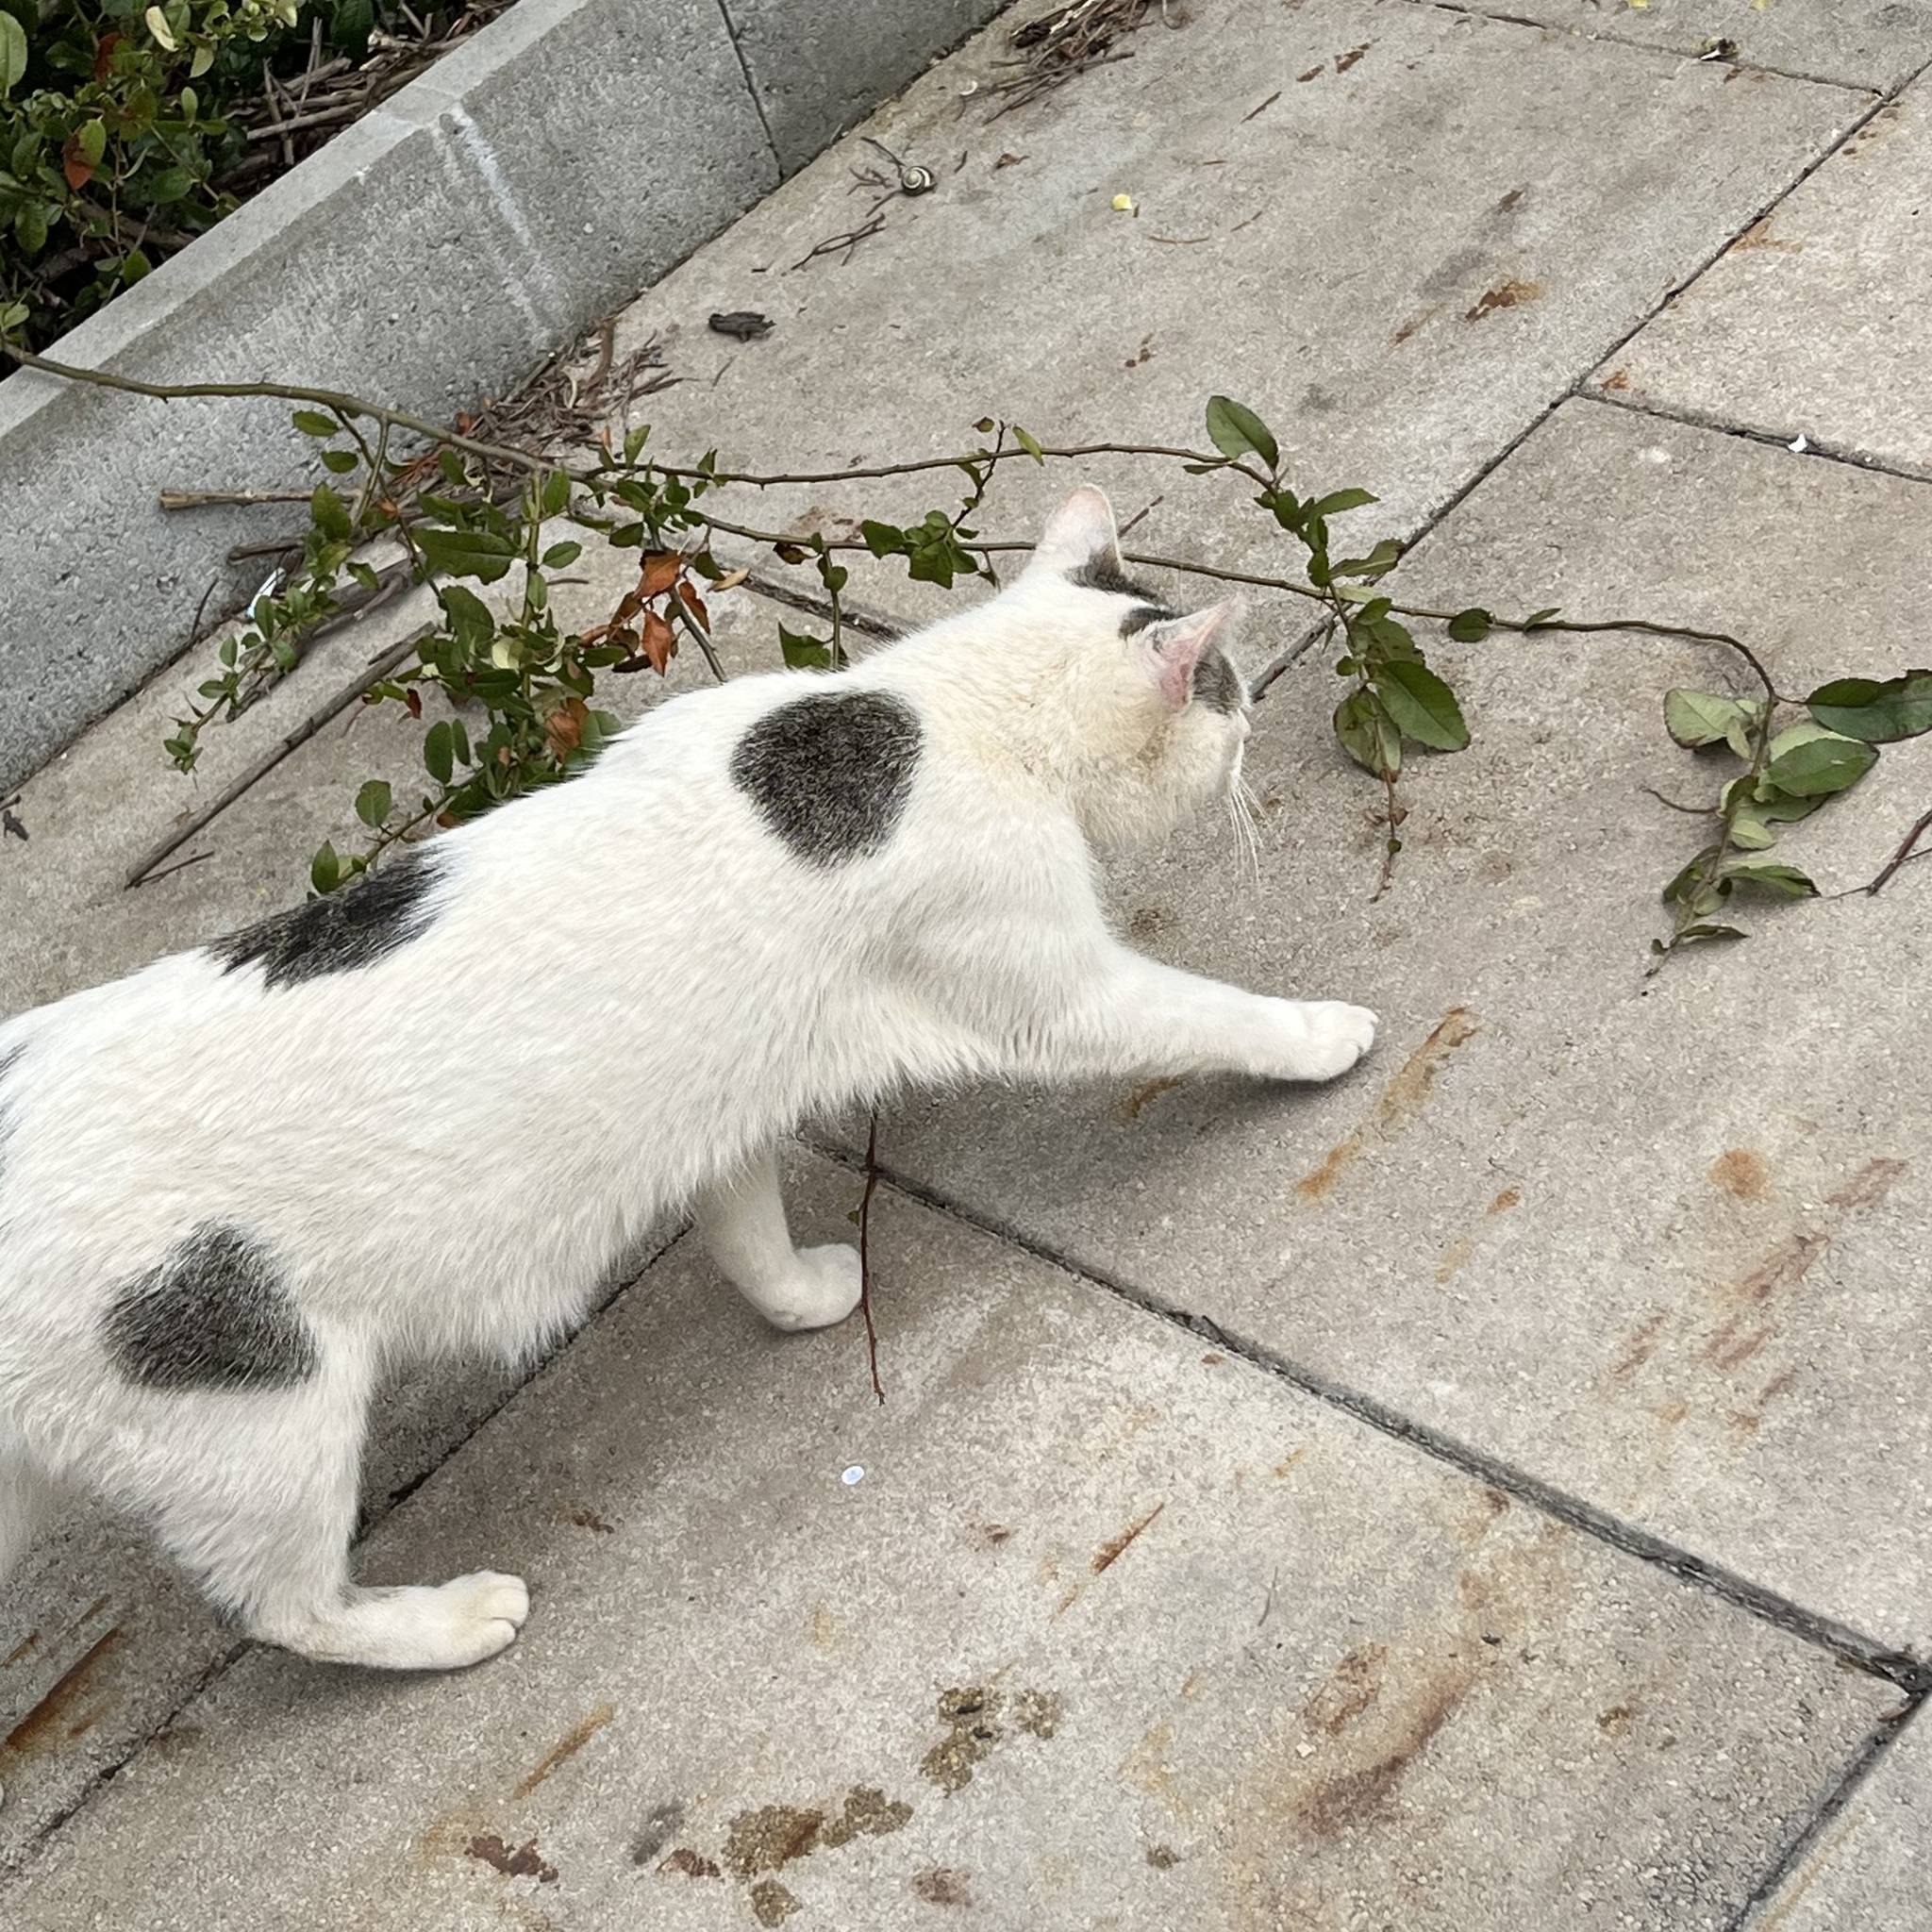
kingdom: Animalia
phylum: Chordata
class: Mammalia
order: Carnivora
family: Felidae
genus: Felis
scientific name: Felis catus
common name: Domestic cat
